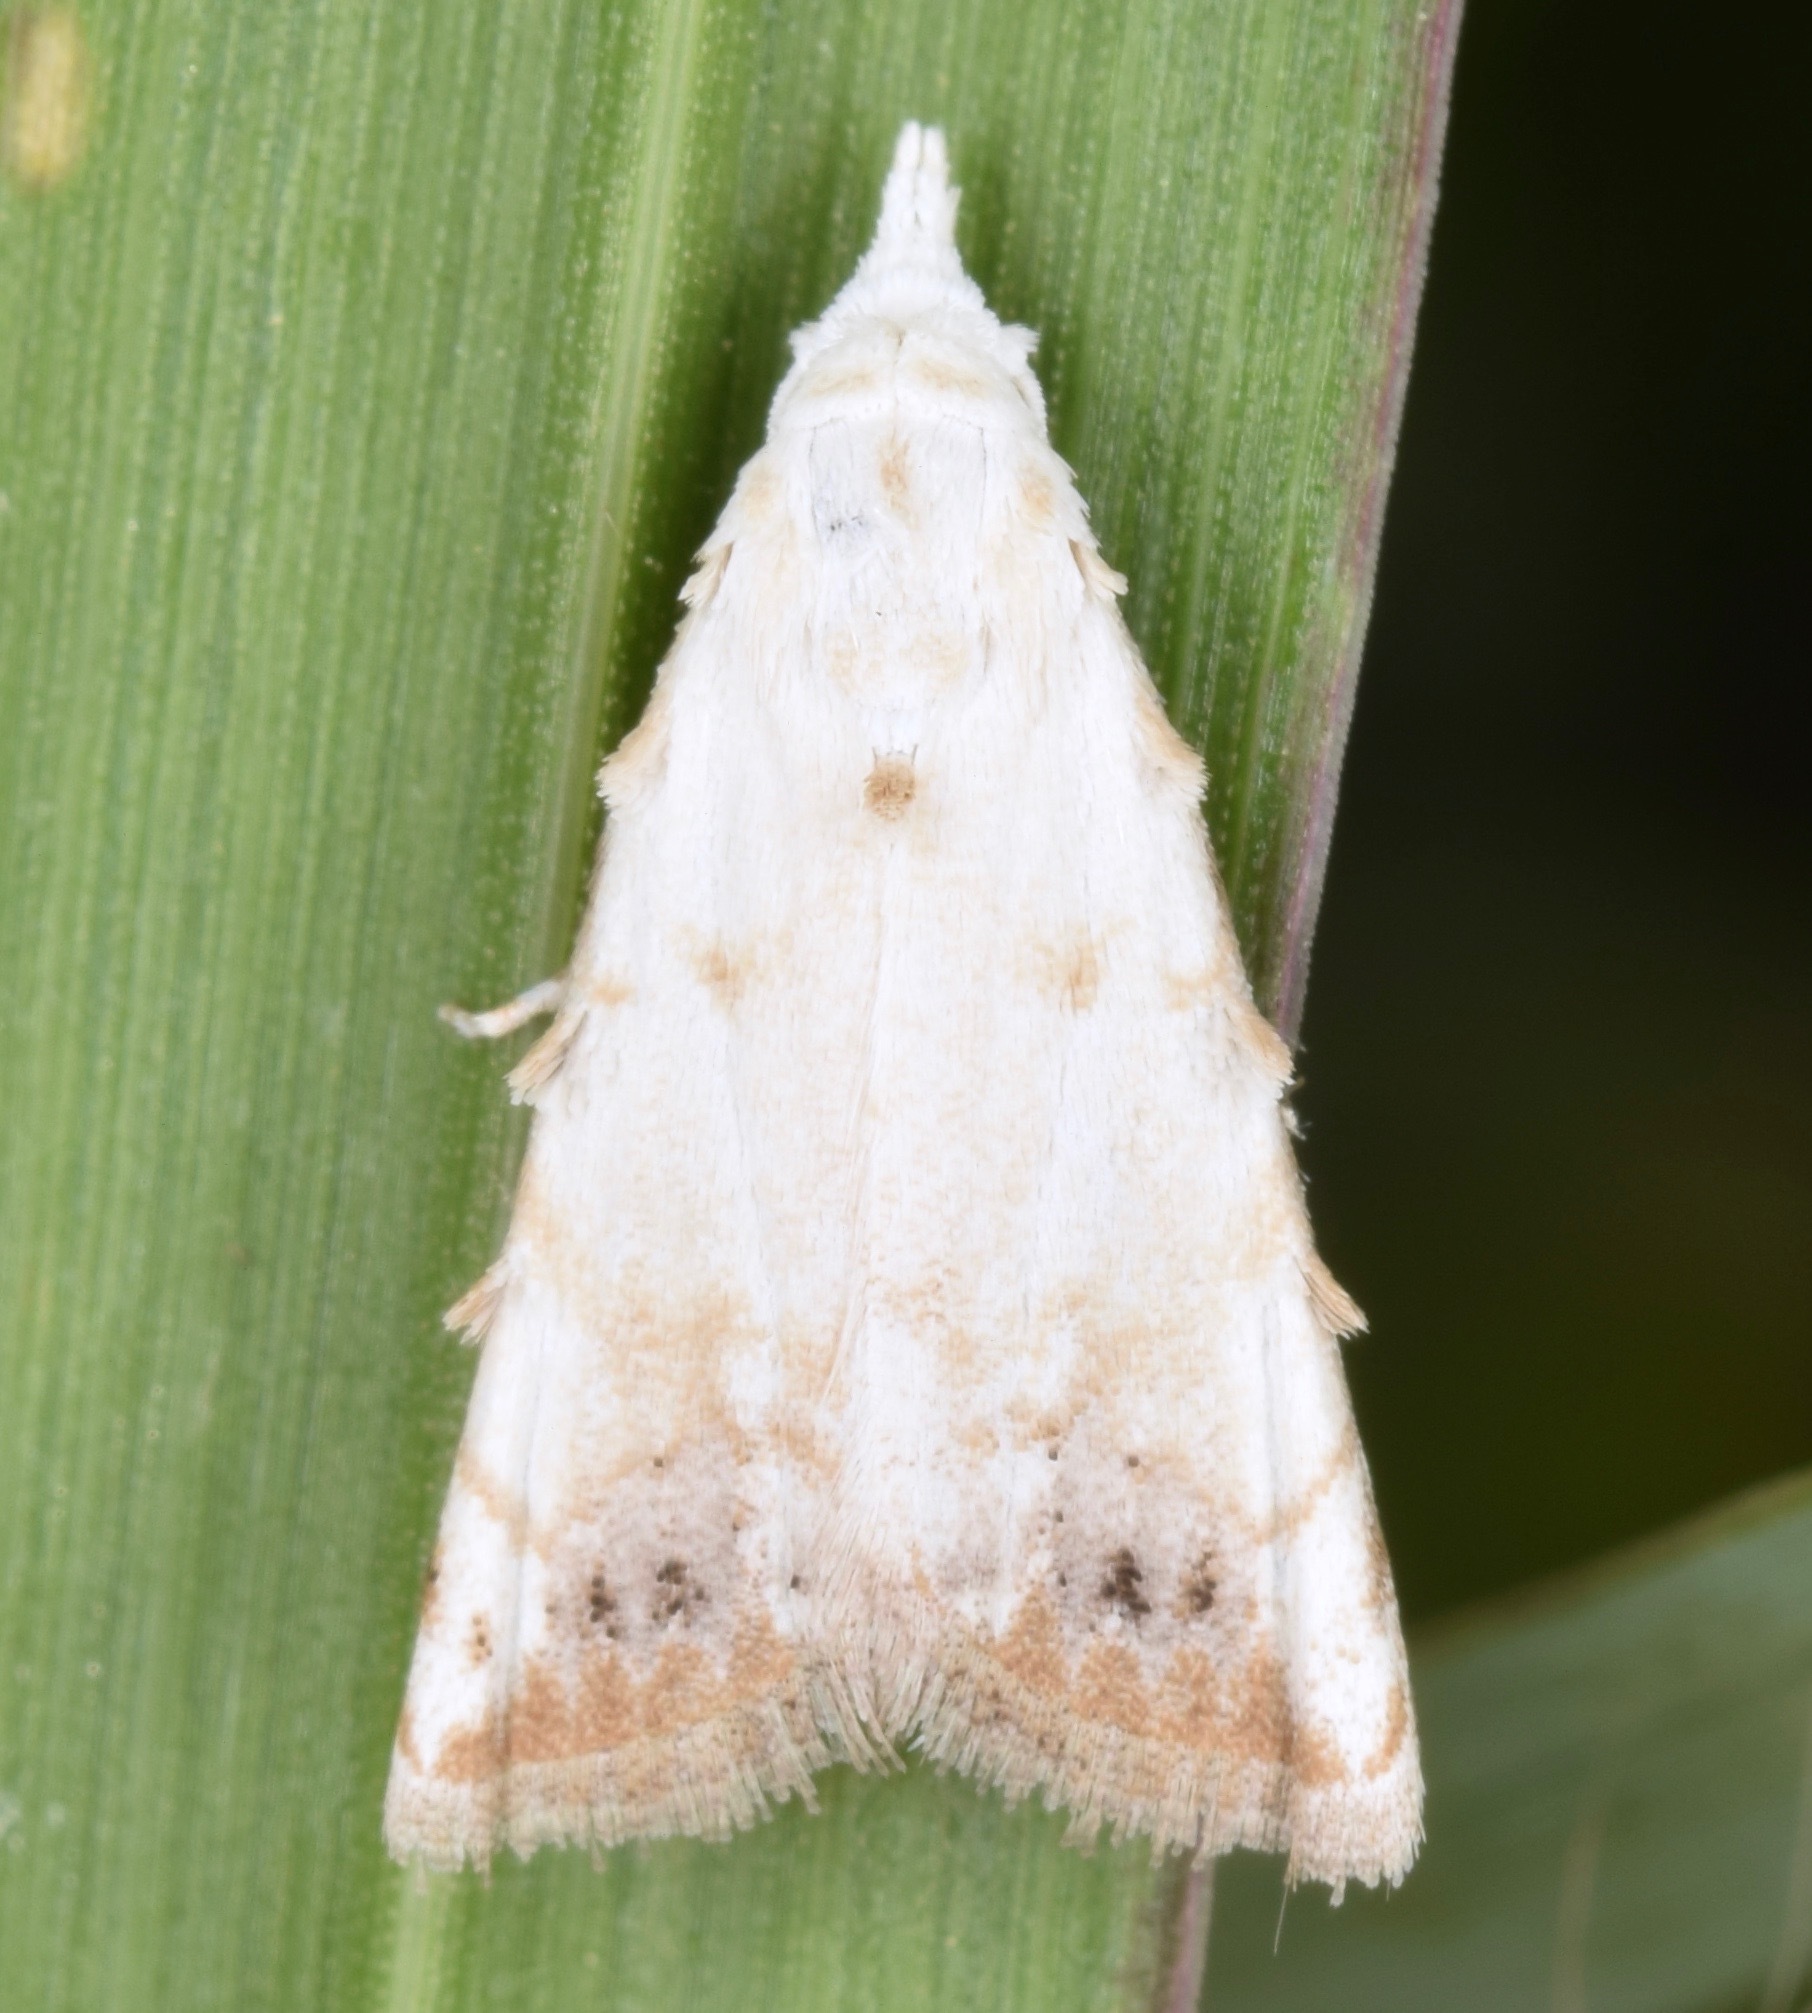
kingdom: Animalia
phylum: Arthropoda
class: Insecta
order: Lepidoptera
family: Nolidae
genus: Nola
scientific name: Nola cereella
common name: Sorghum webworm moth
